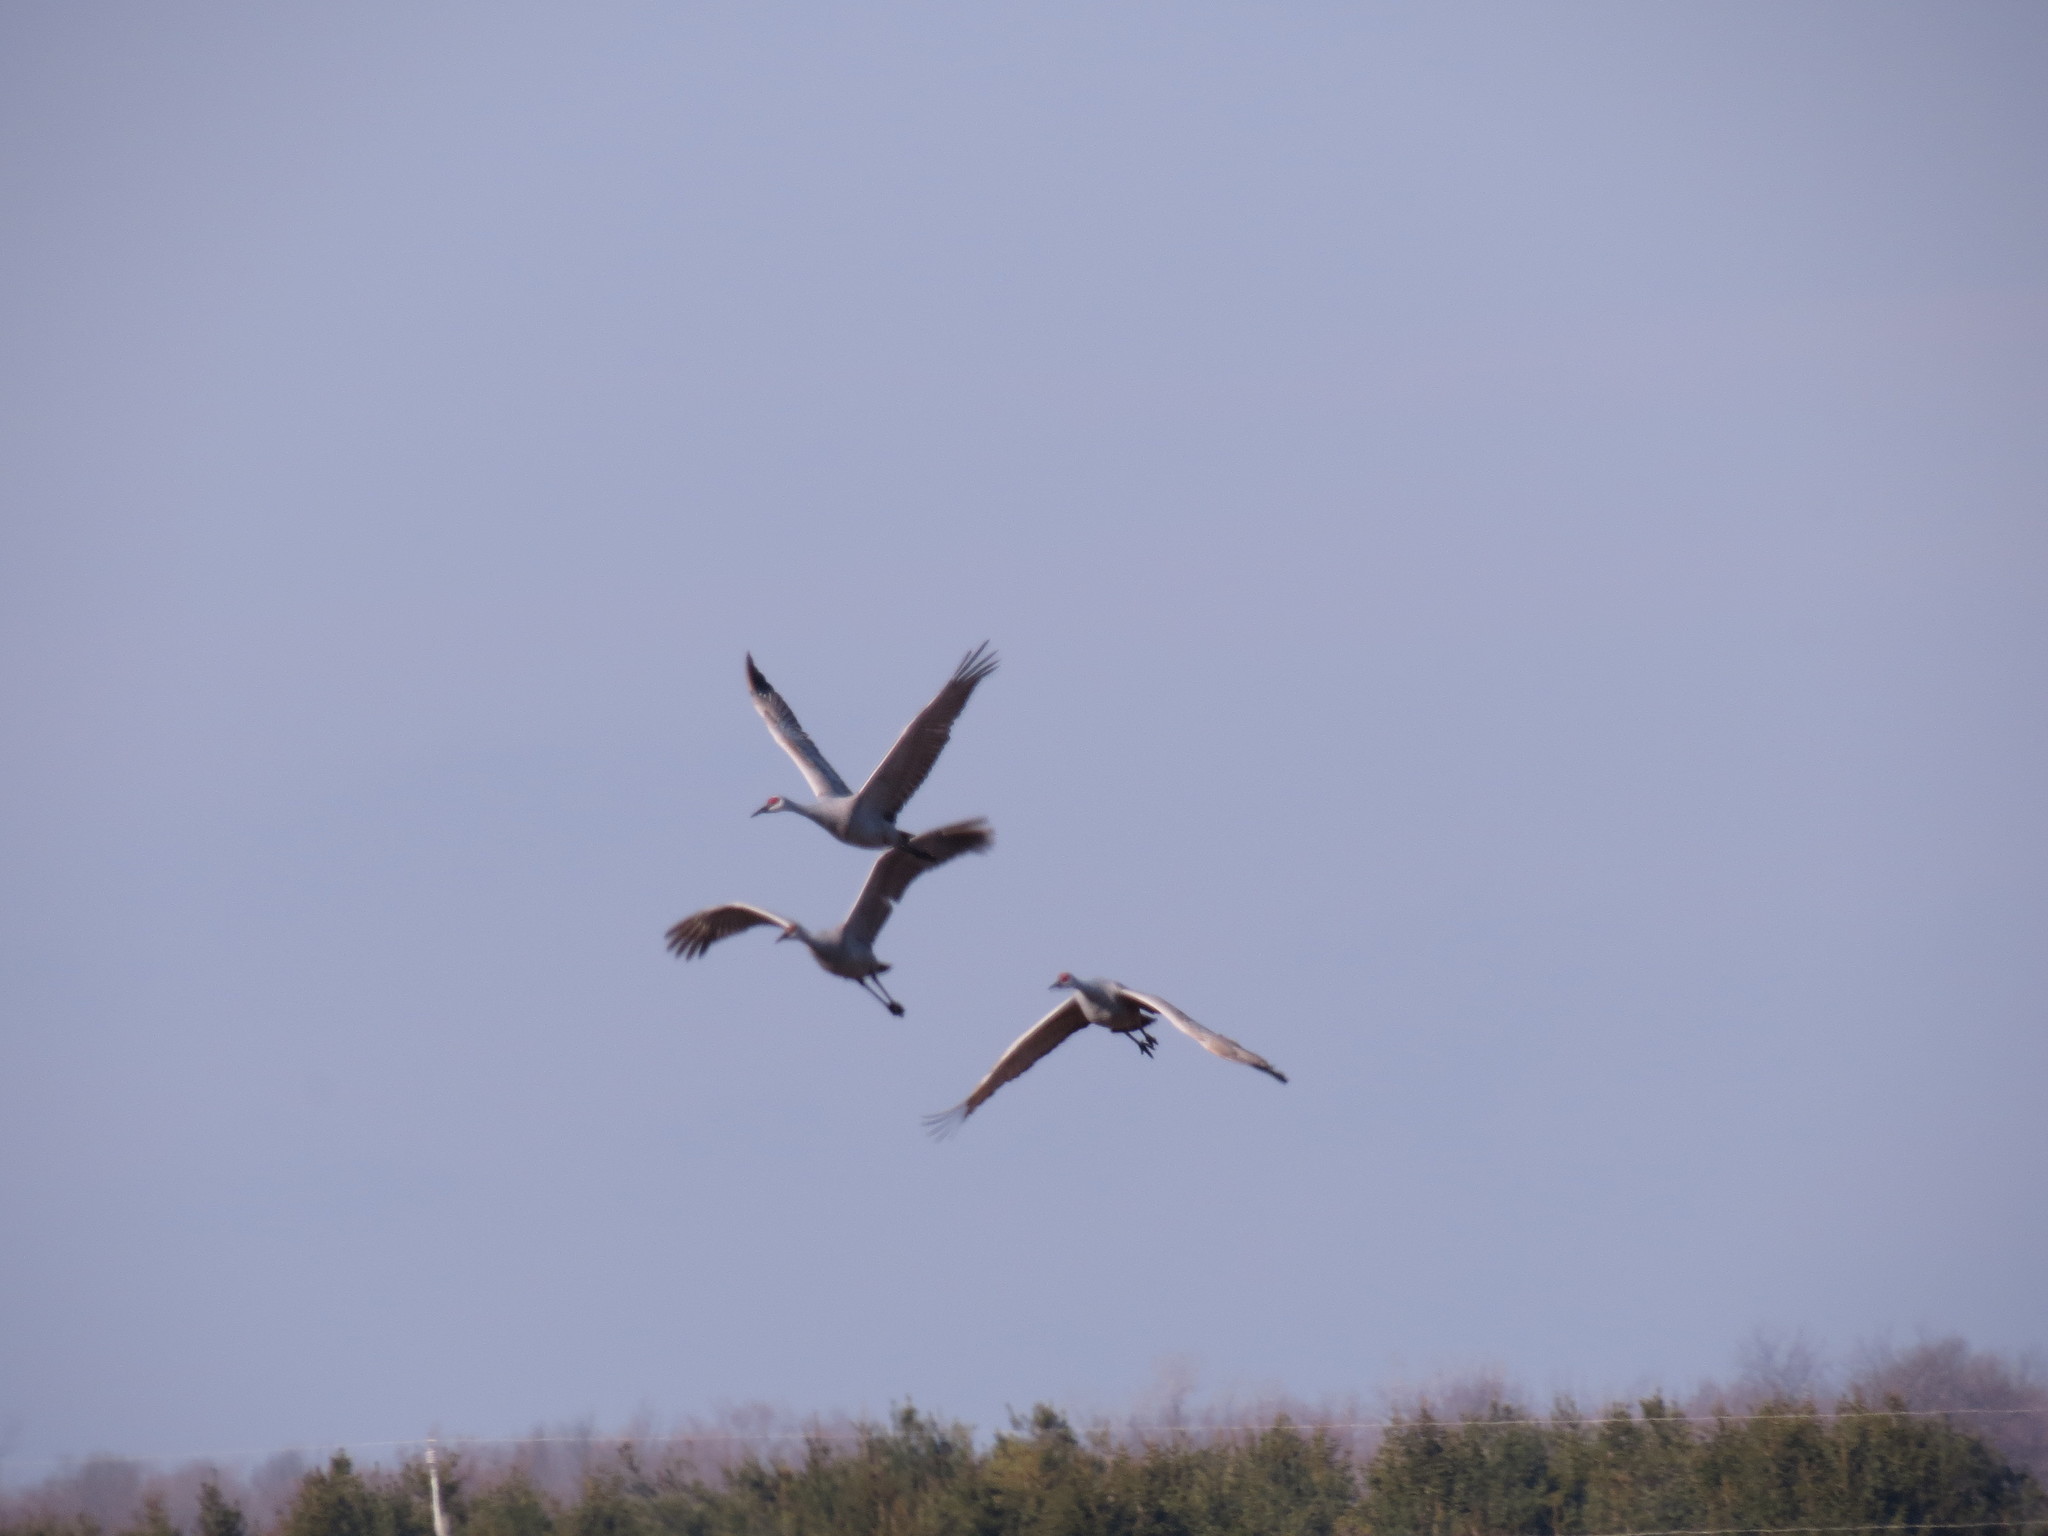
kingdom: Animalia
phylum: Chordata
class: Aves
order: Gruiformes
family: Gruidae
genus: Grus
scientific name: Grus canadensis
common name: Sandhill crane
